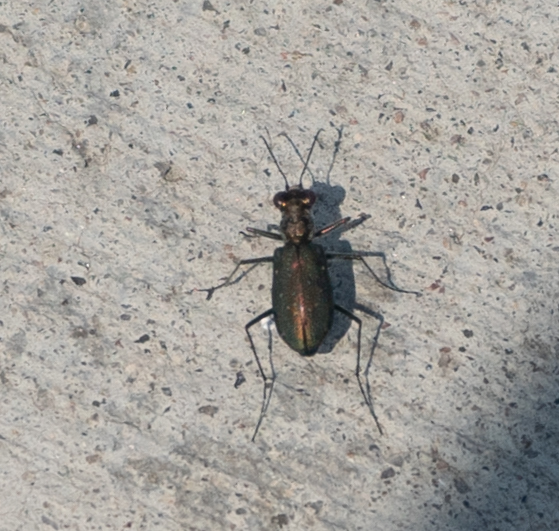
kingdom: Animalia
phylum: Arthropoda
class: Insecta
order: Coleoptera
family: Carabidae
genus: Cicindela
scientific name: Cicindela punctulata
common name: Punctured tiger beetle
